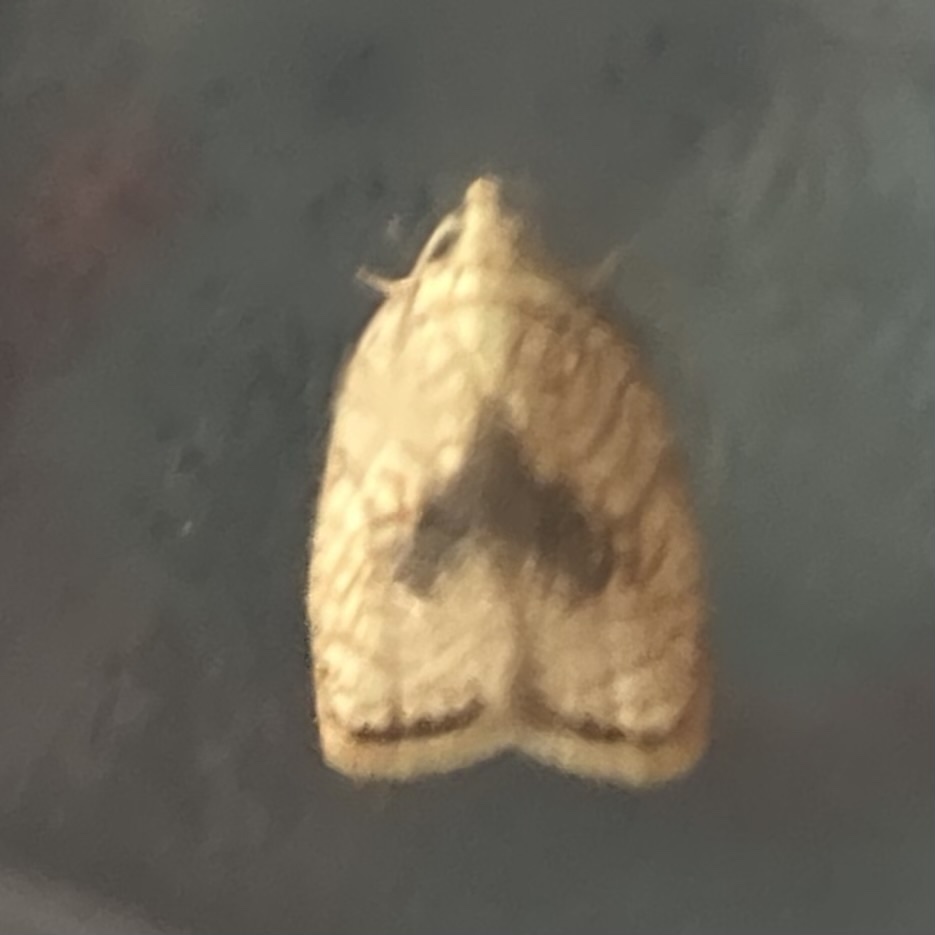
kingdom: Animalia
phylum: Arthropoda
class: Insecta
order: Lepidoptera
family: Tortricidae
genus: Acleris
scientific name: Acleris forsskaleana
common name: Maple button
